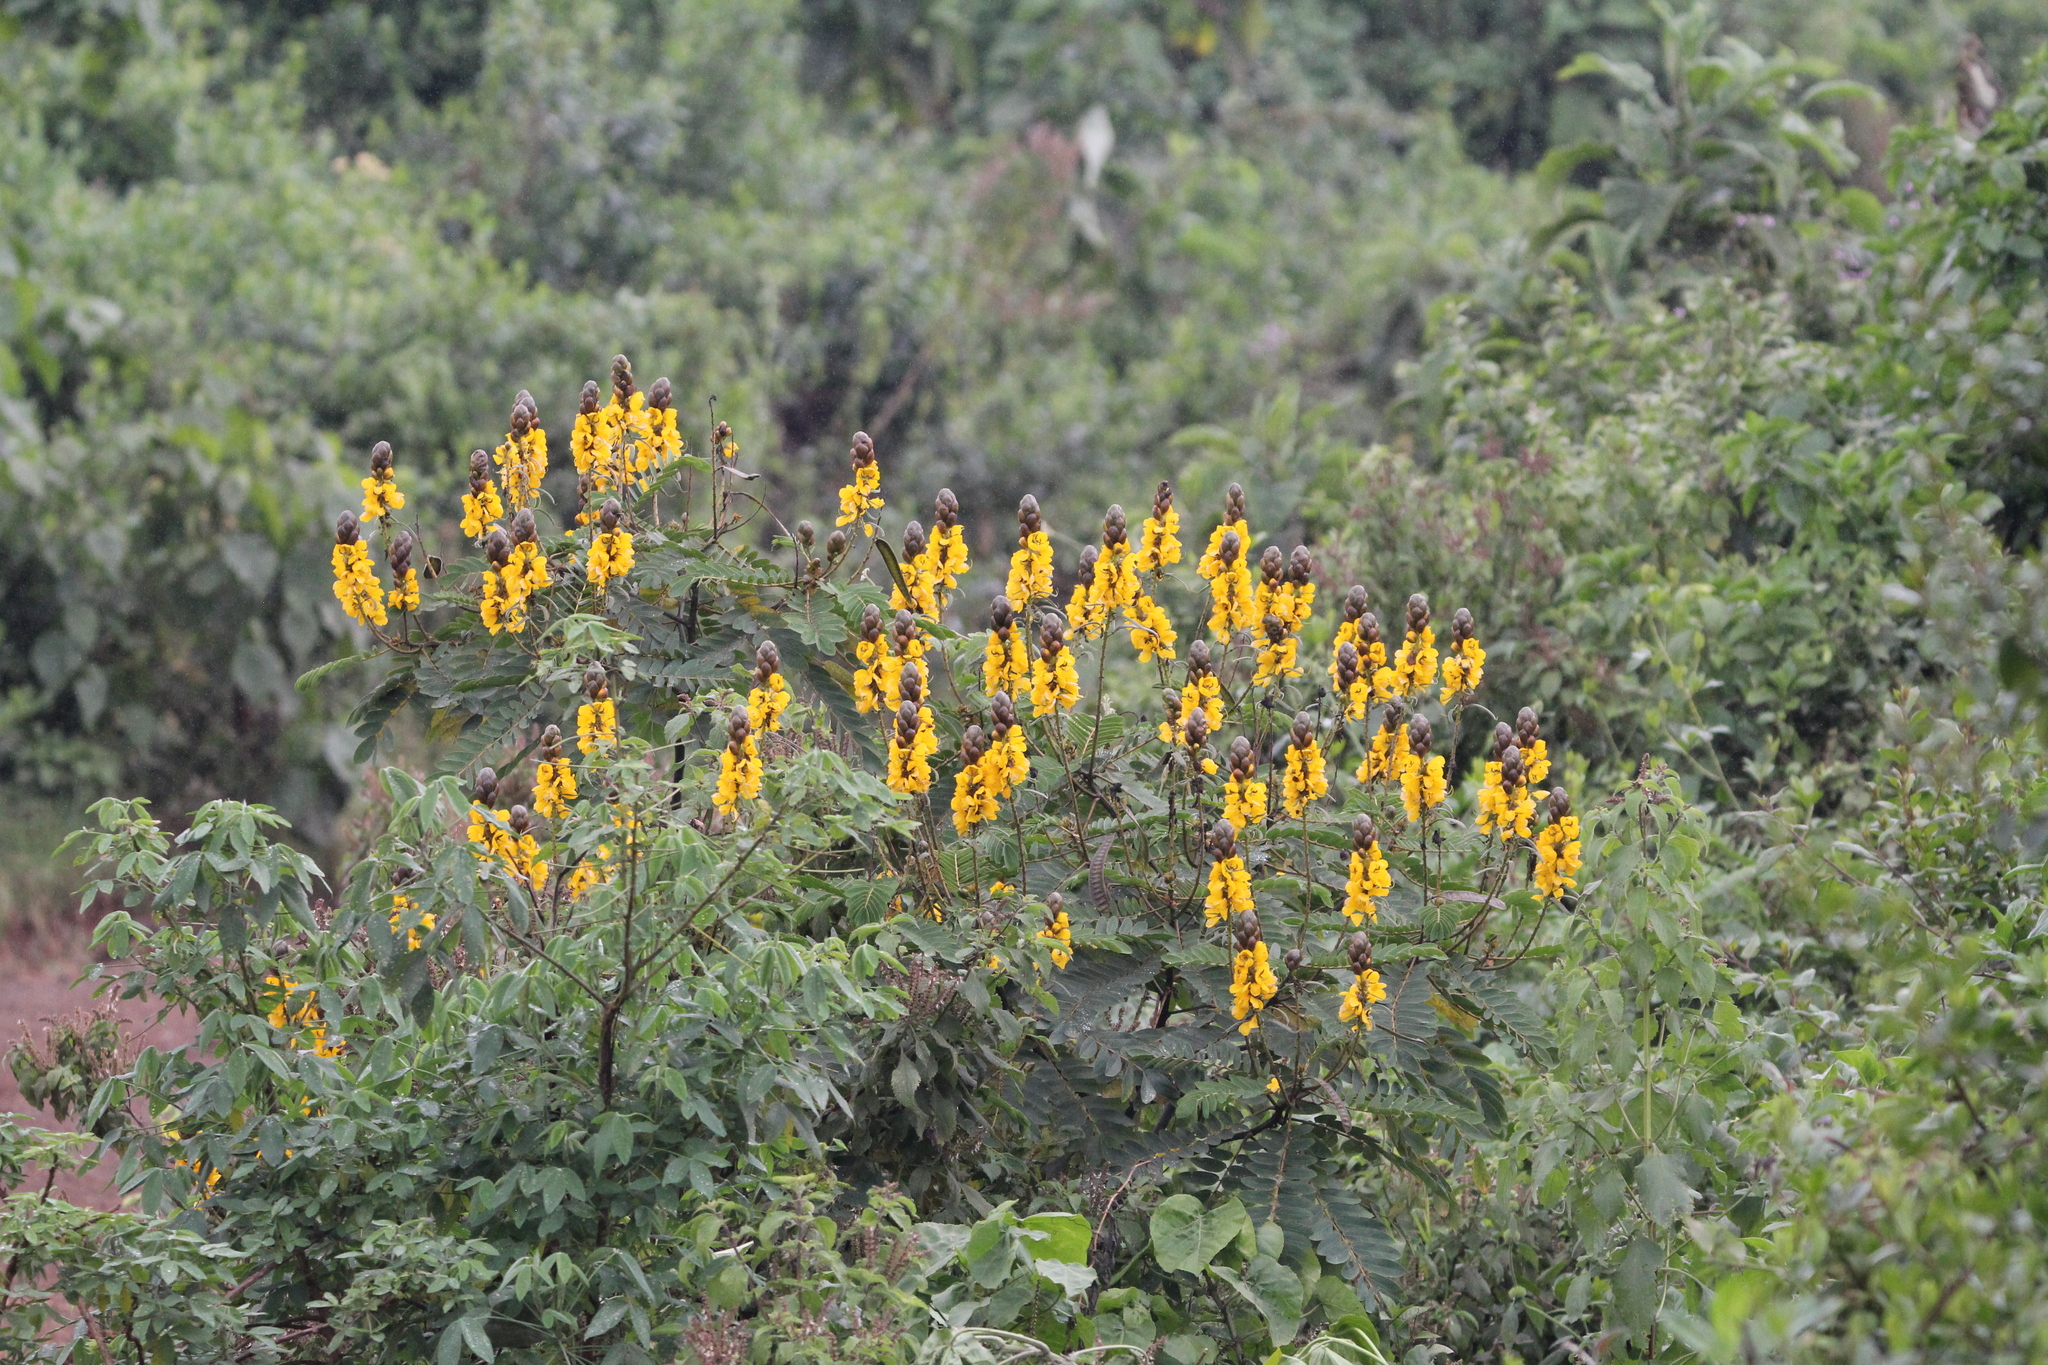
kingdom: Plantae
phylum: Tracheophyta
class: Magnoliopsida
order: Fabales
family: Fabaceae
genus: Senna
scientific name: Senna didymobotrya
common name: African senna
